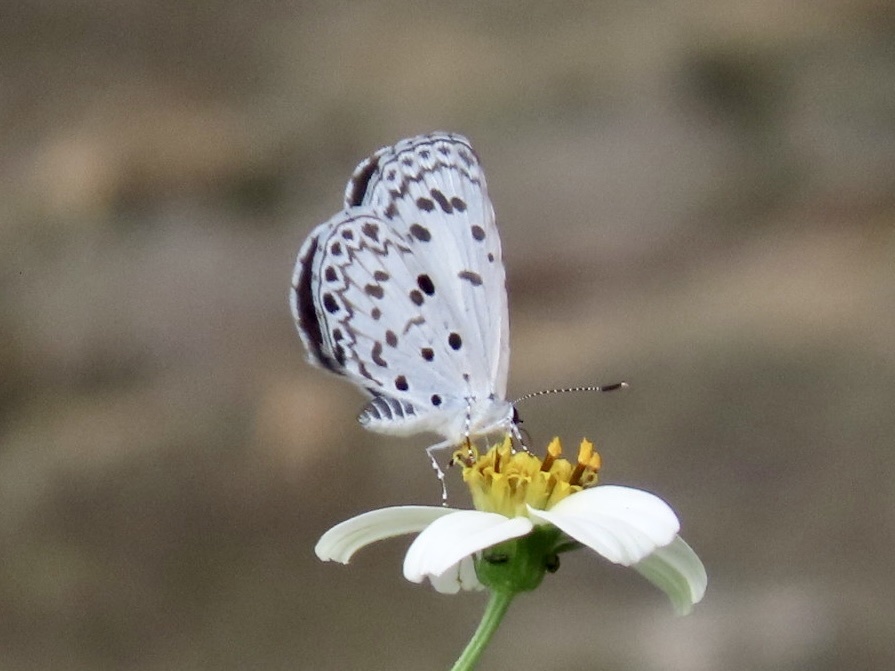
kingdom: Animalia
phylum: Arthropoda
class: Insecta
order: Lepidoptera
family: Lycaenidae
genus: Acytolepis
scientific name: Acytolepis puspa
